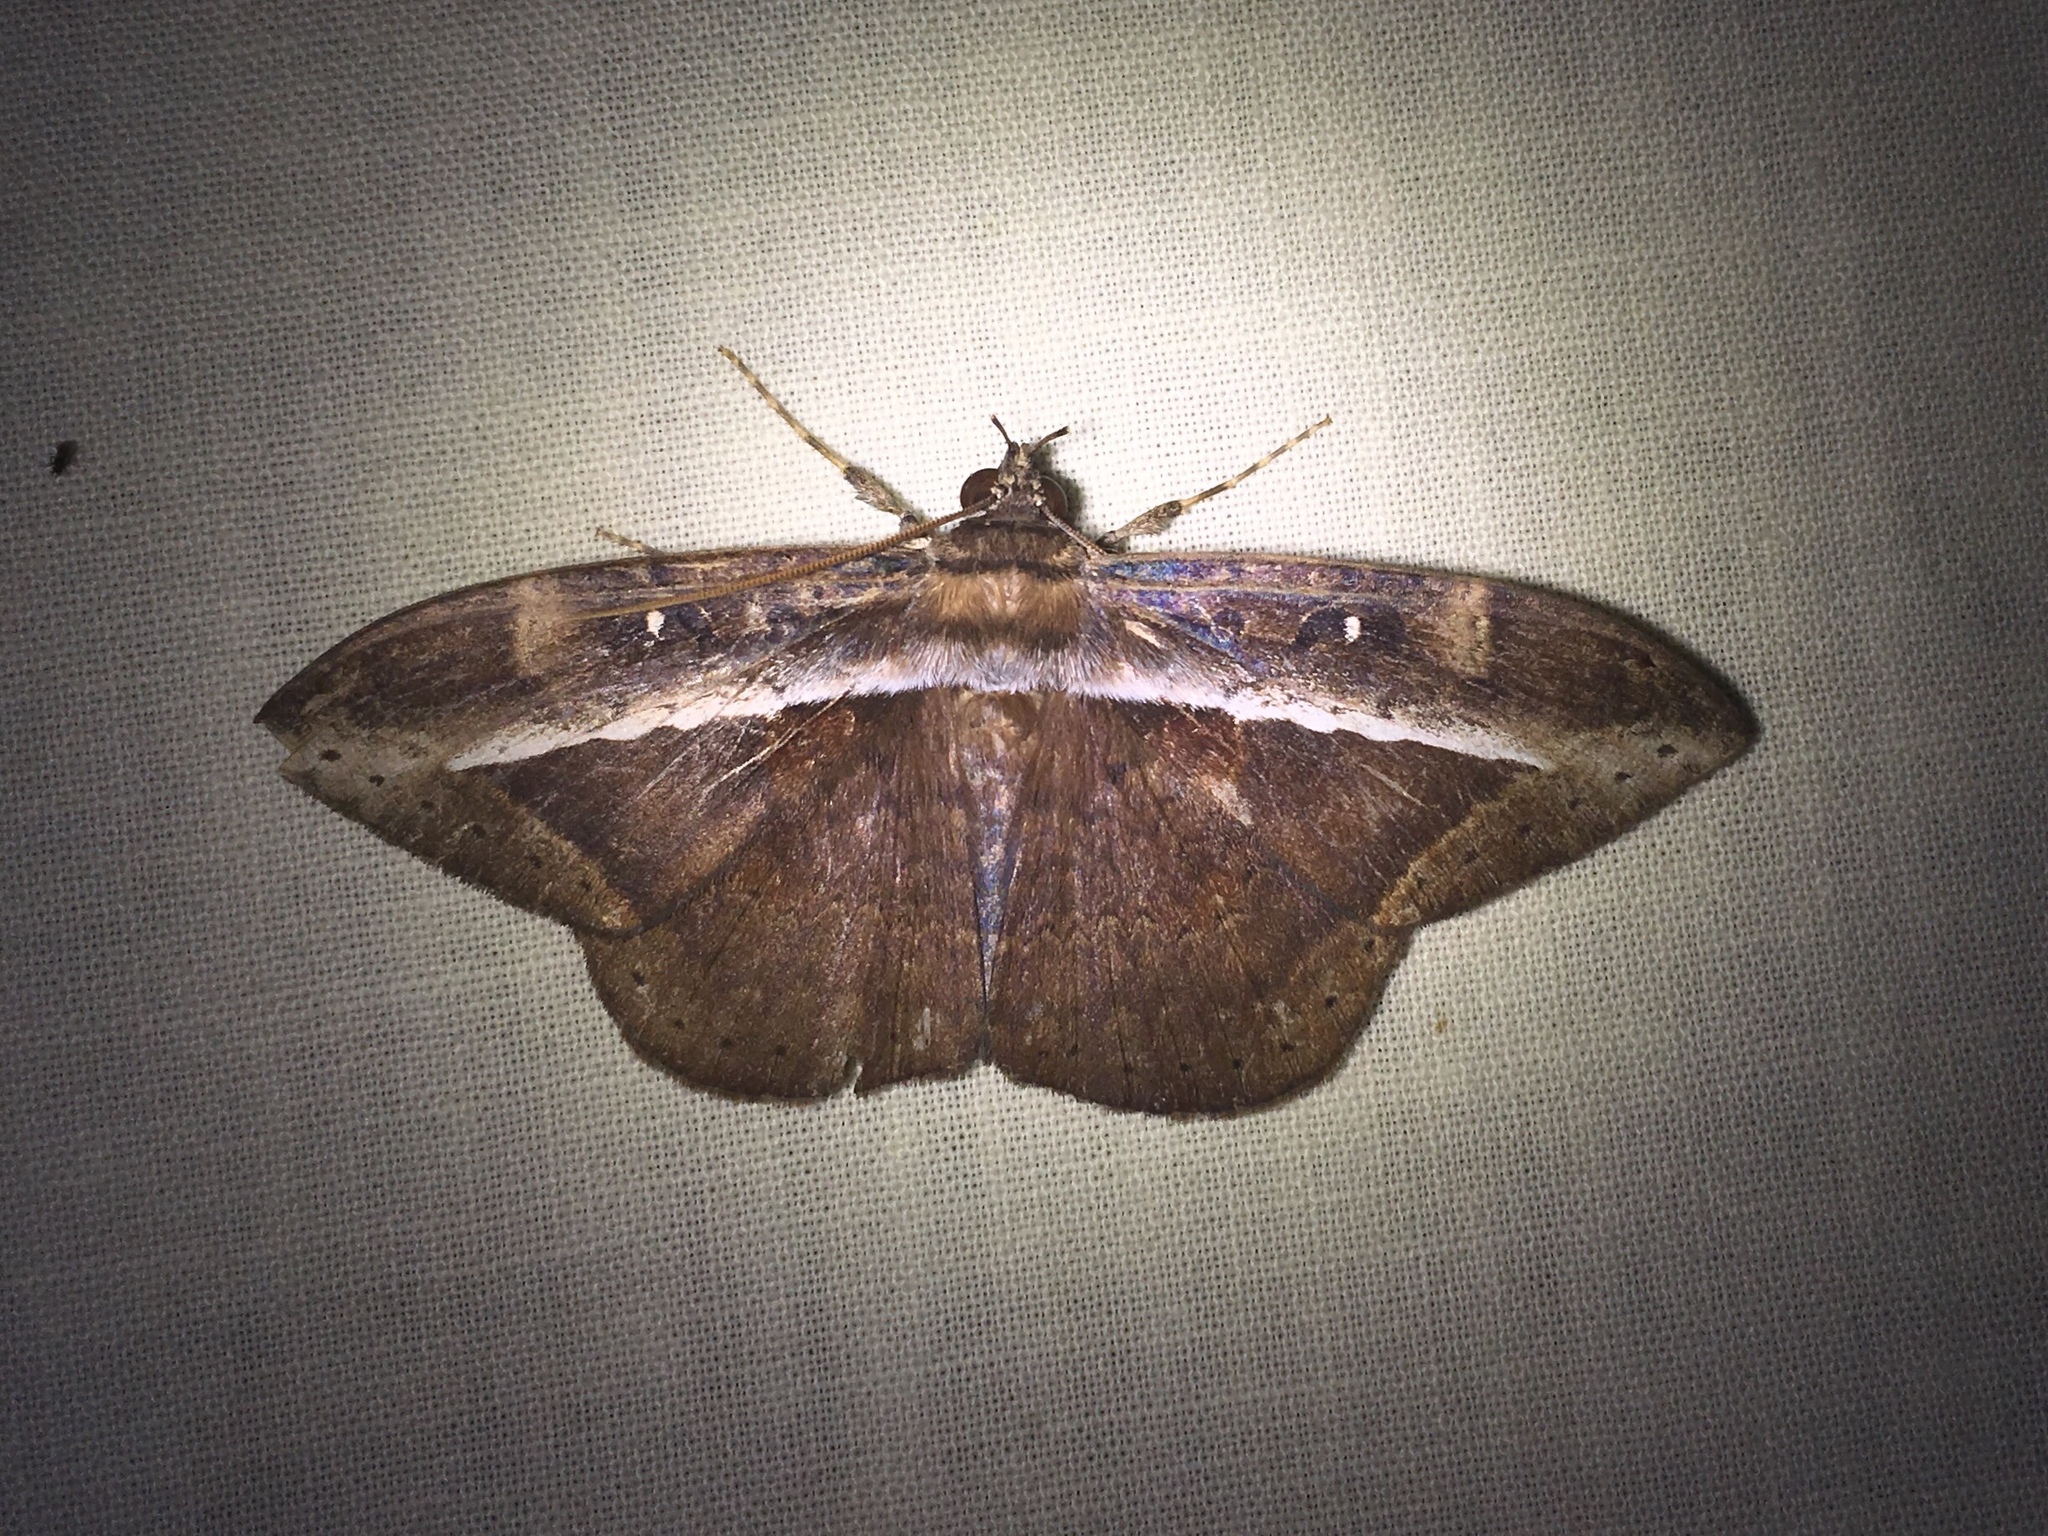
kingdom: Animalia
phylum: Arthropoda
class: Insecta
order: Lepidoptera
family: Erebidae
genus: Hemeroblemma
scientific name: Hemeroblemma opigena
